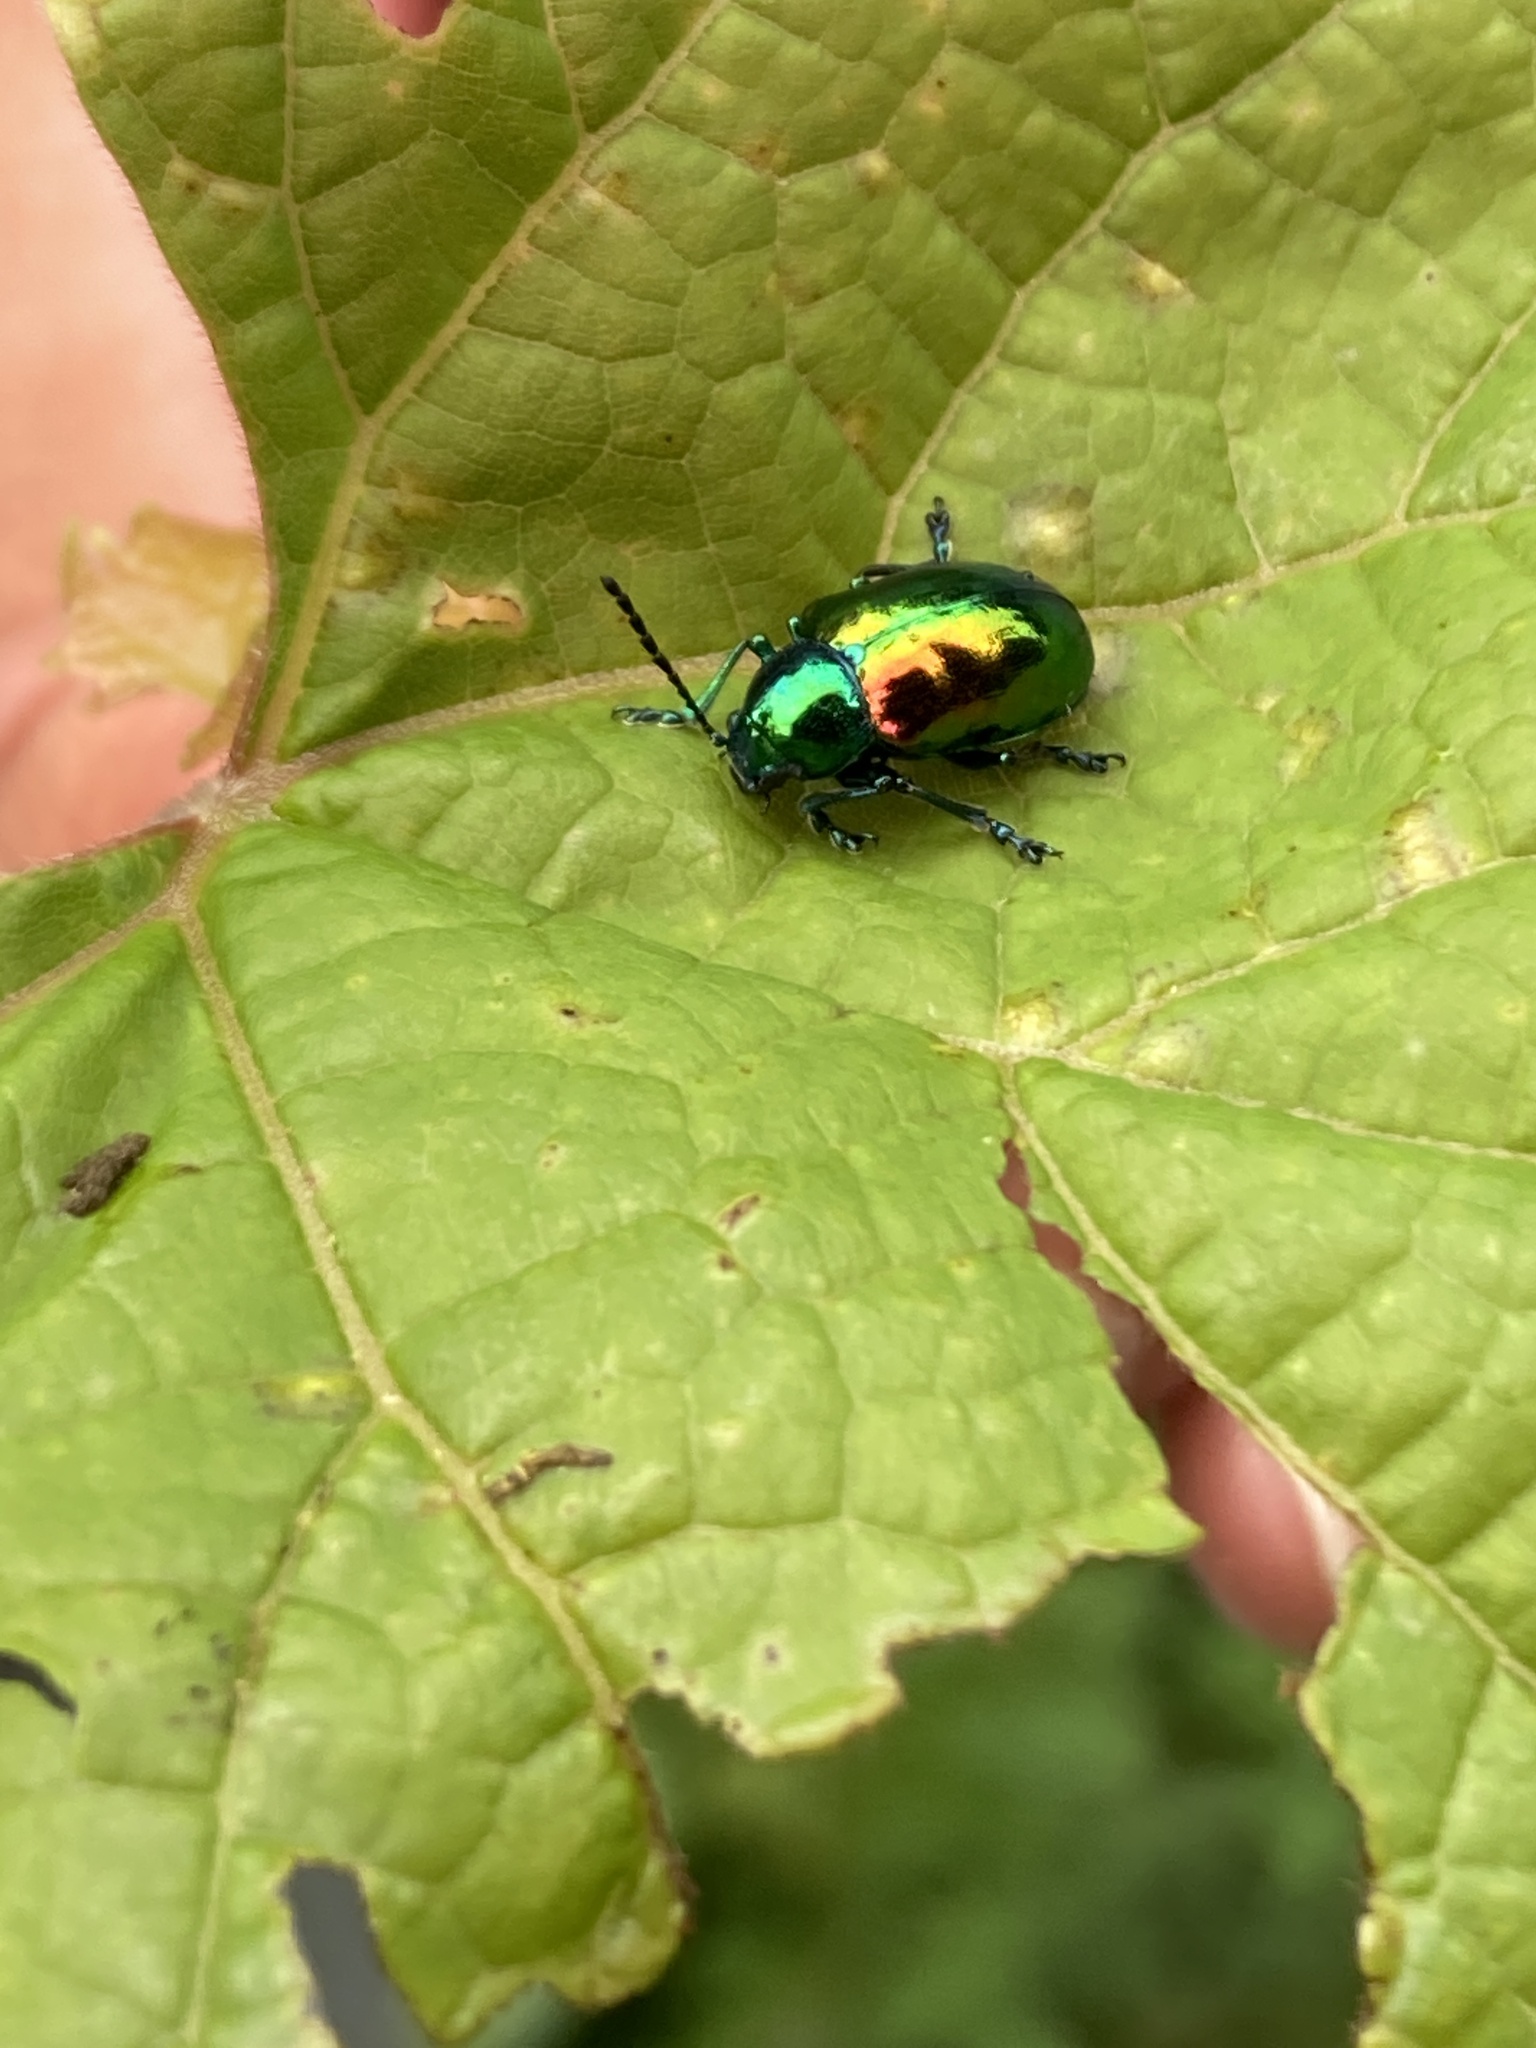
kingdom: Animalia
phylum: Arthropoda
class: Insecta
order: Coleoptera
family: Chrysomelidae
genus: Chrysochus
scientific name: Chrysochus auratus
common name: Dogbane leaf beetle
